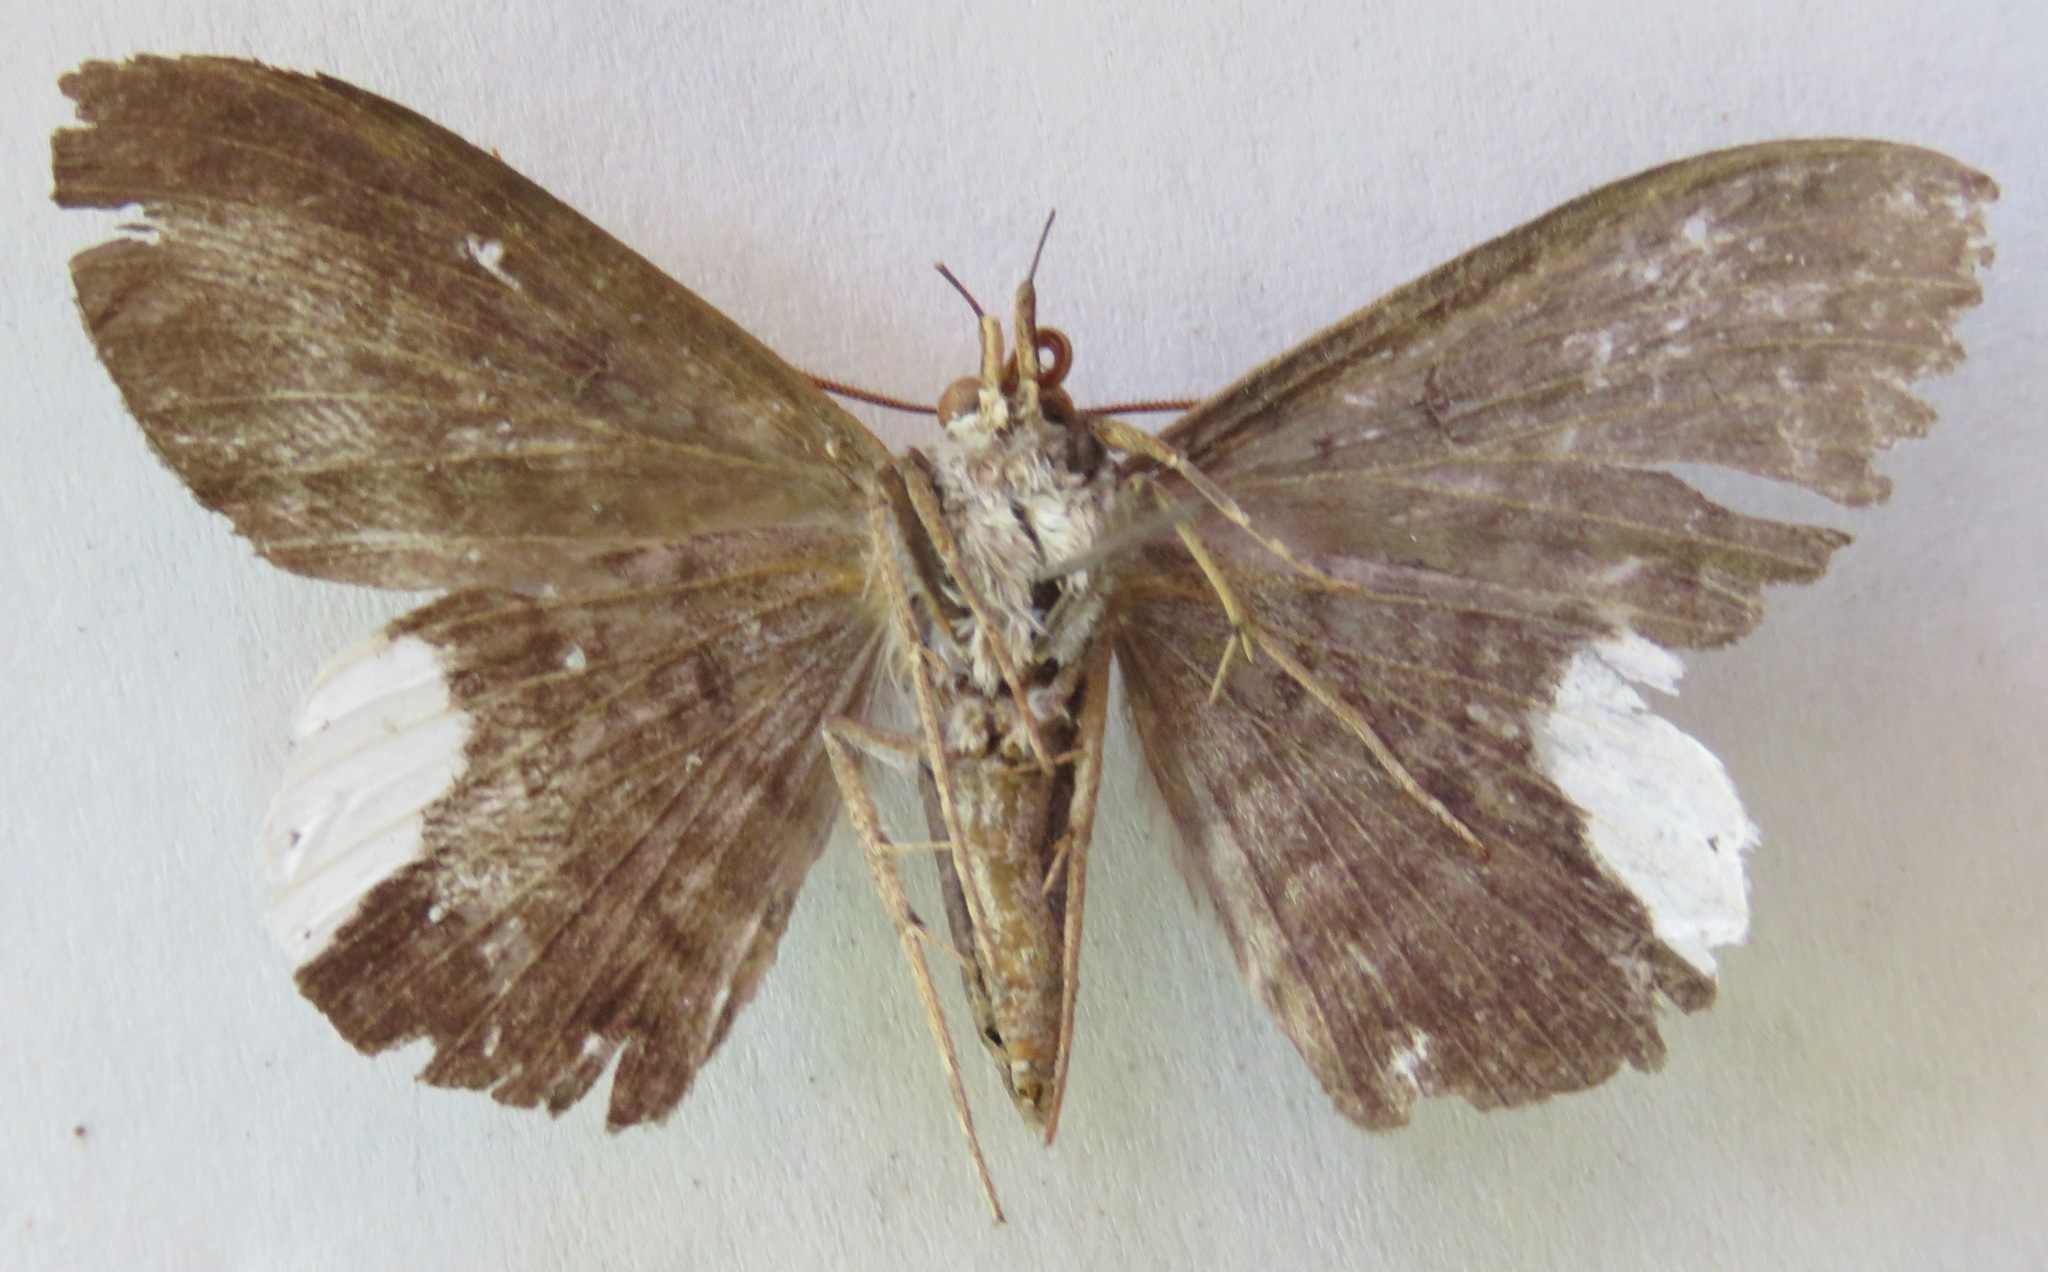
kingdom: Animalia
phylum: Arthropoda
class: Insecta
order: Lepidoptera
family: Erebidae
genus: Hemeroblemma
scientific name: Hemeroblemma leontia
